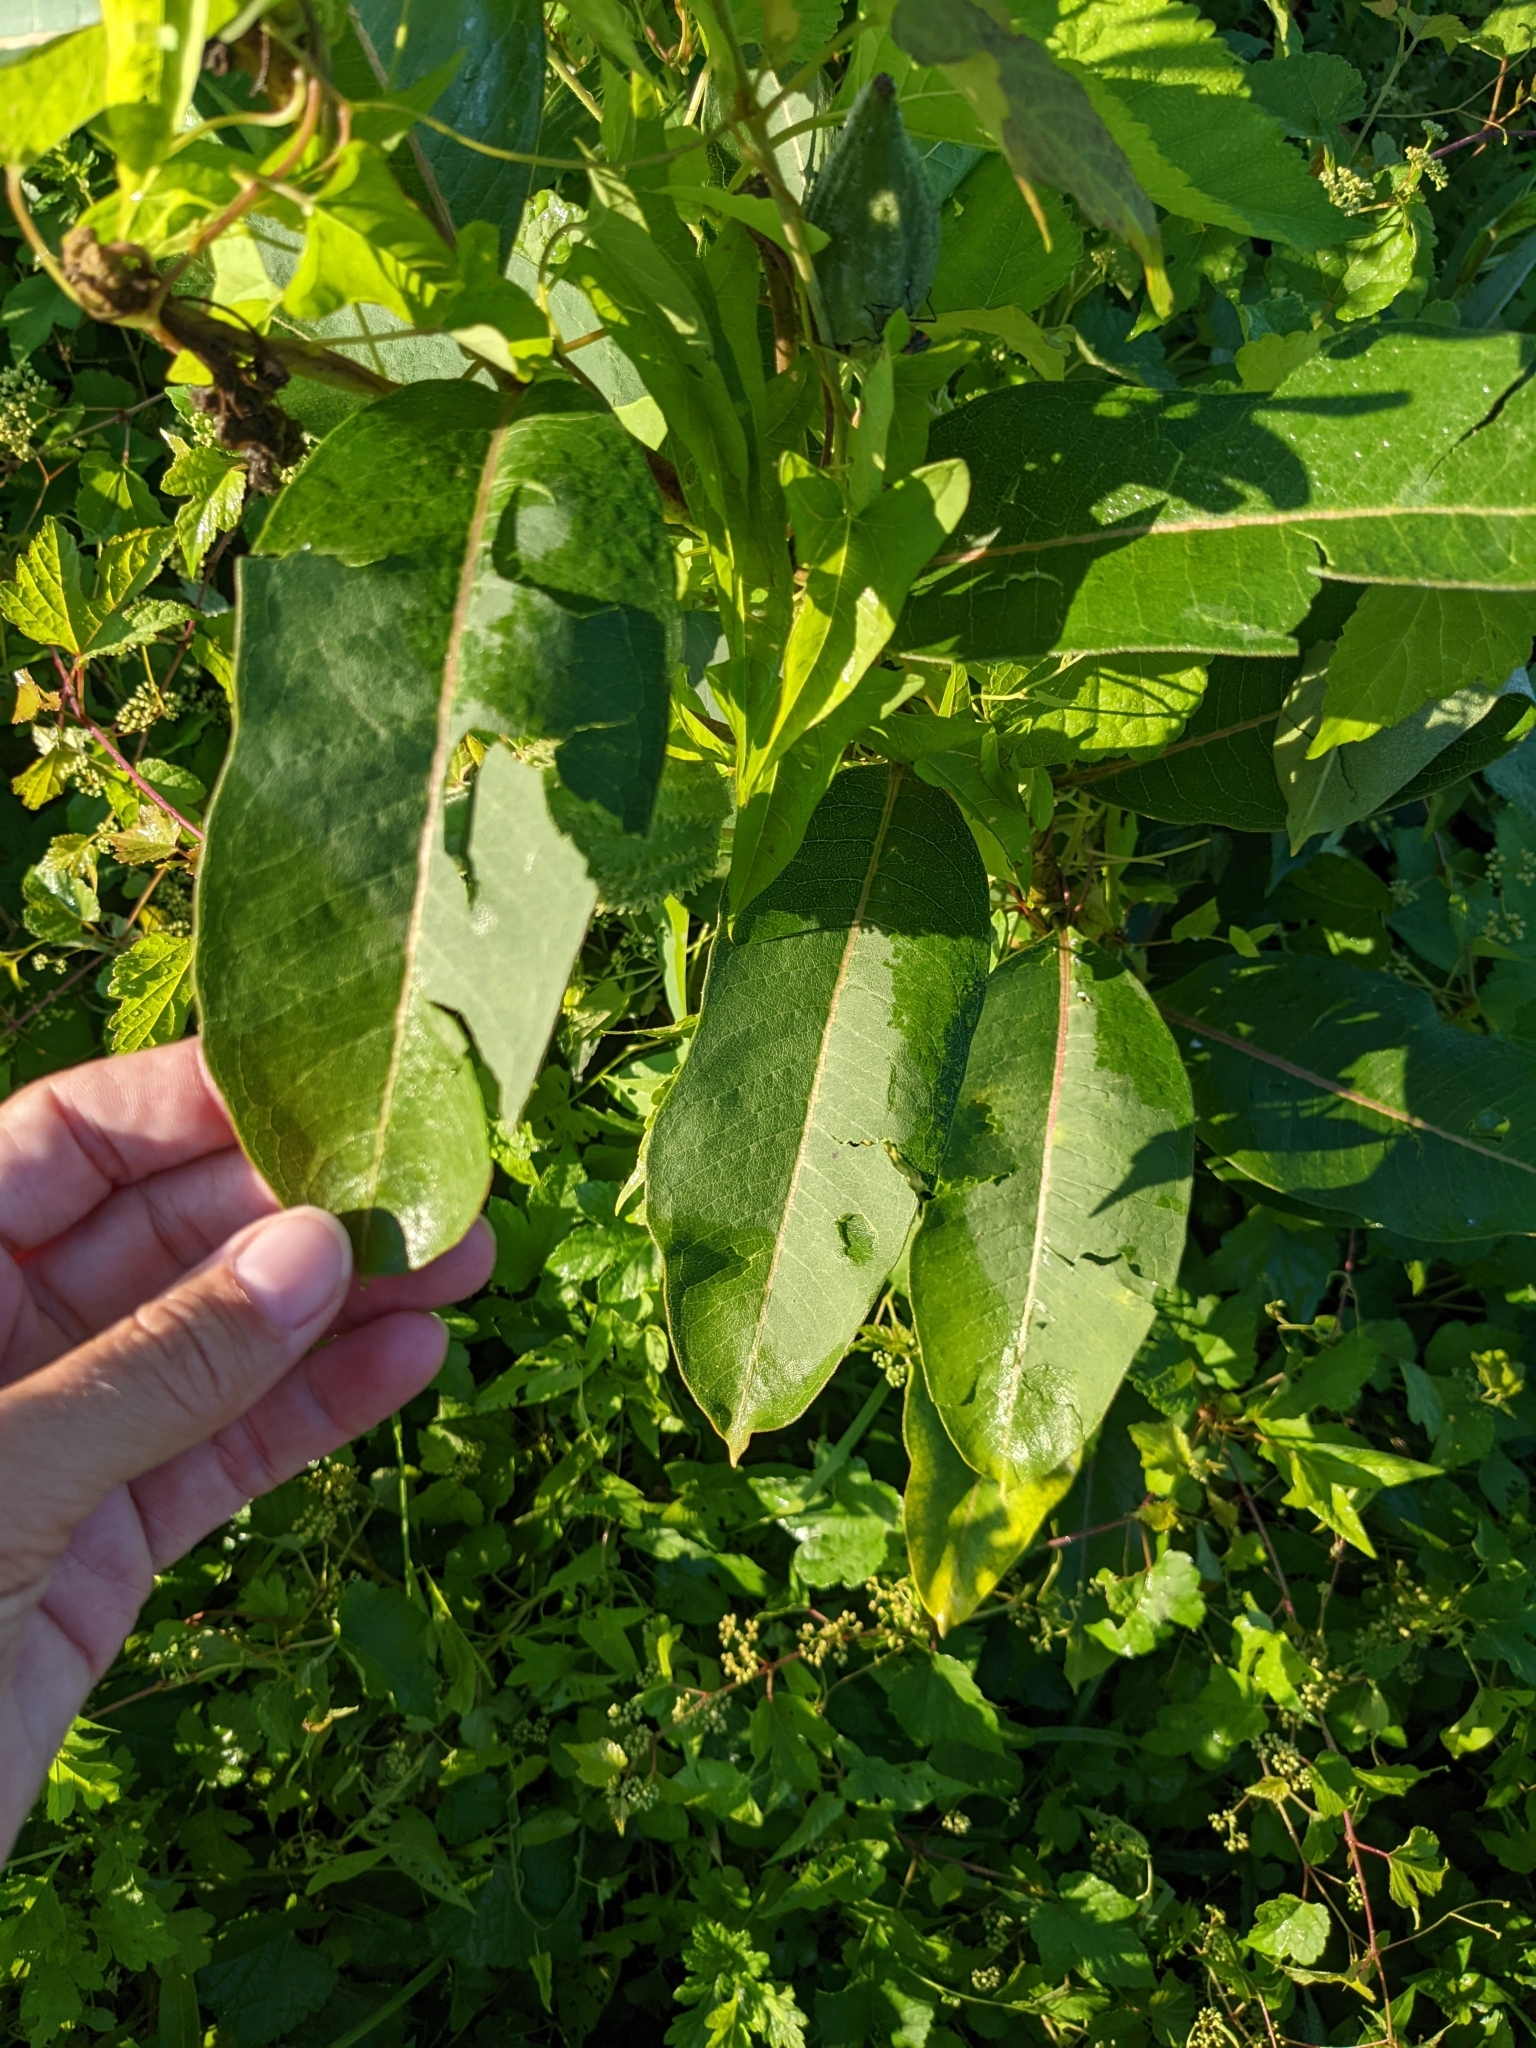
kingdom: Plantae
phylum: Tracheophyta
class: Magnoliopsida
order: Gentianales
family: Apocynaceae
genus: Asclepias
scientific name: Asclepias syriaca
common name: Common milkweed
